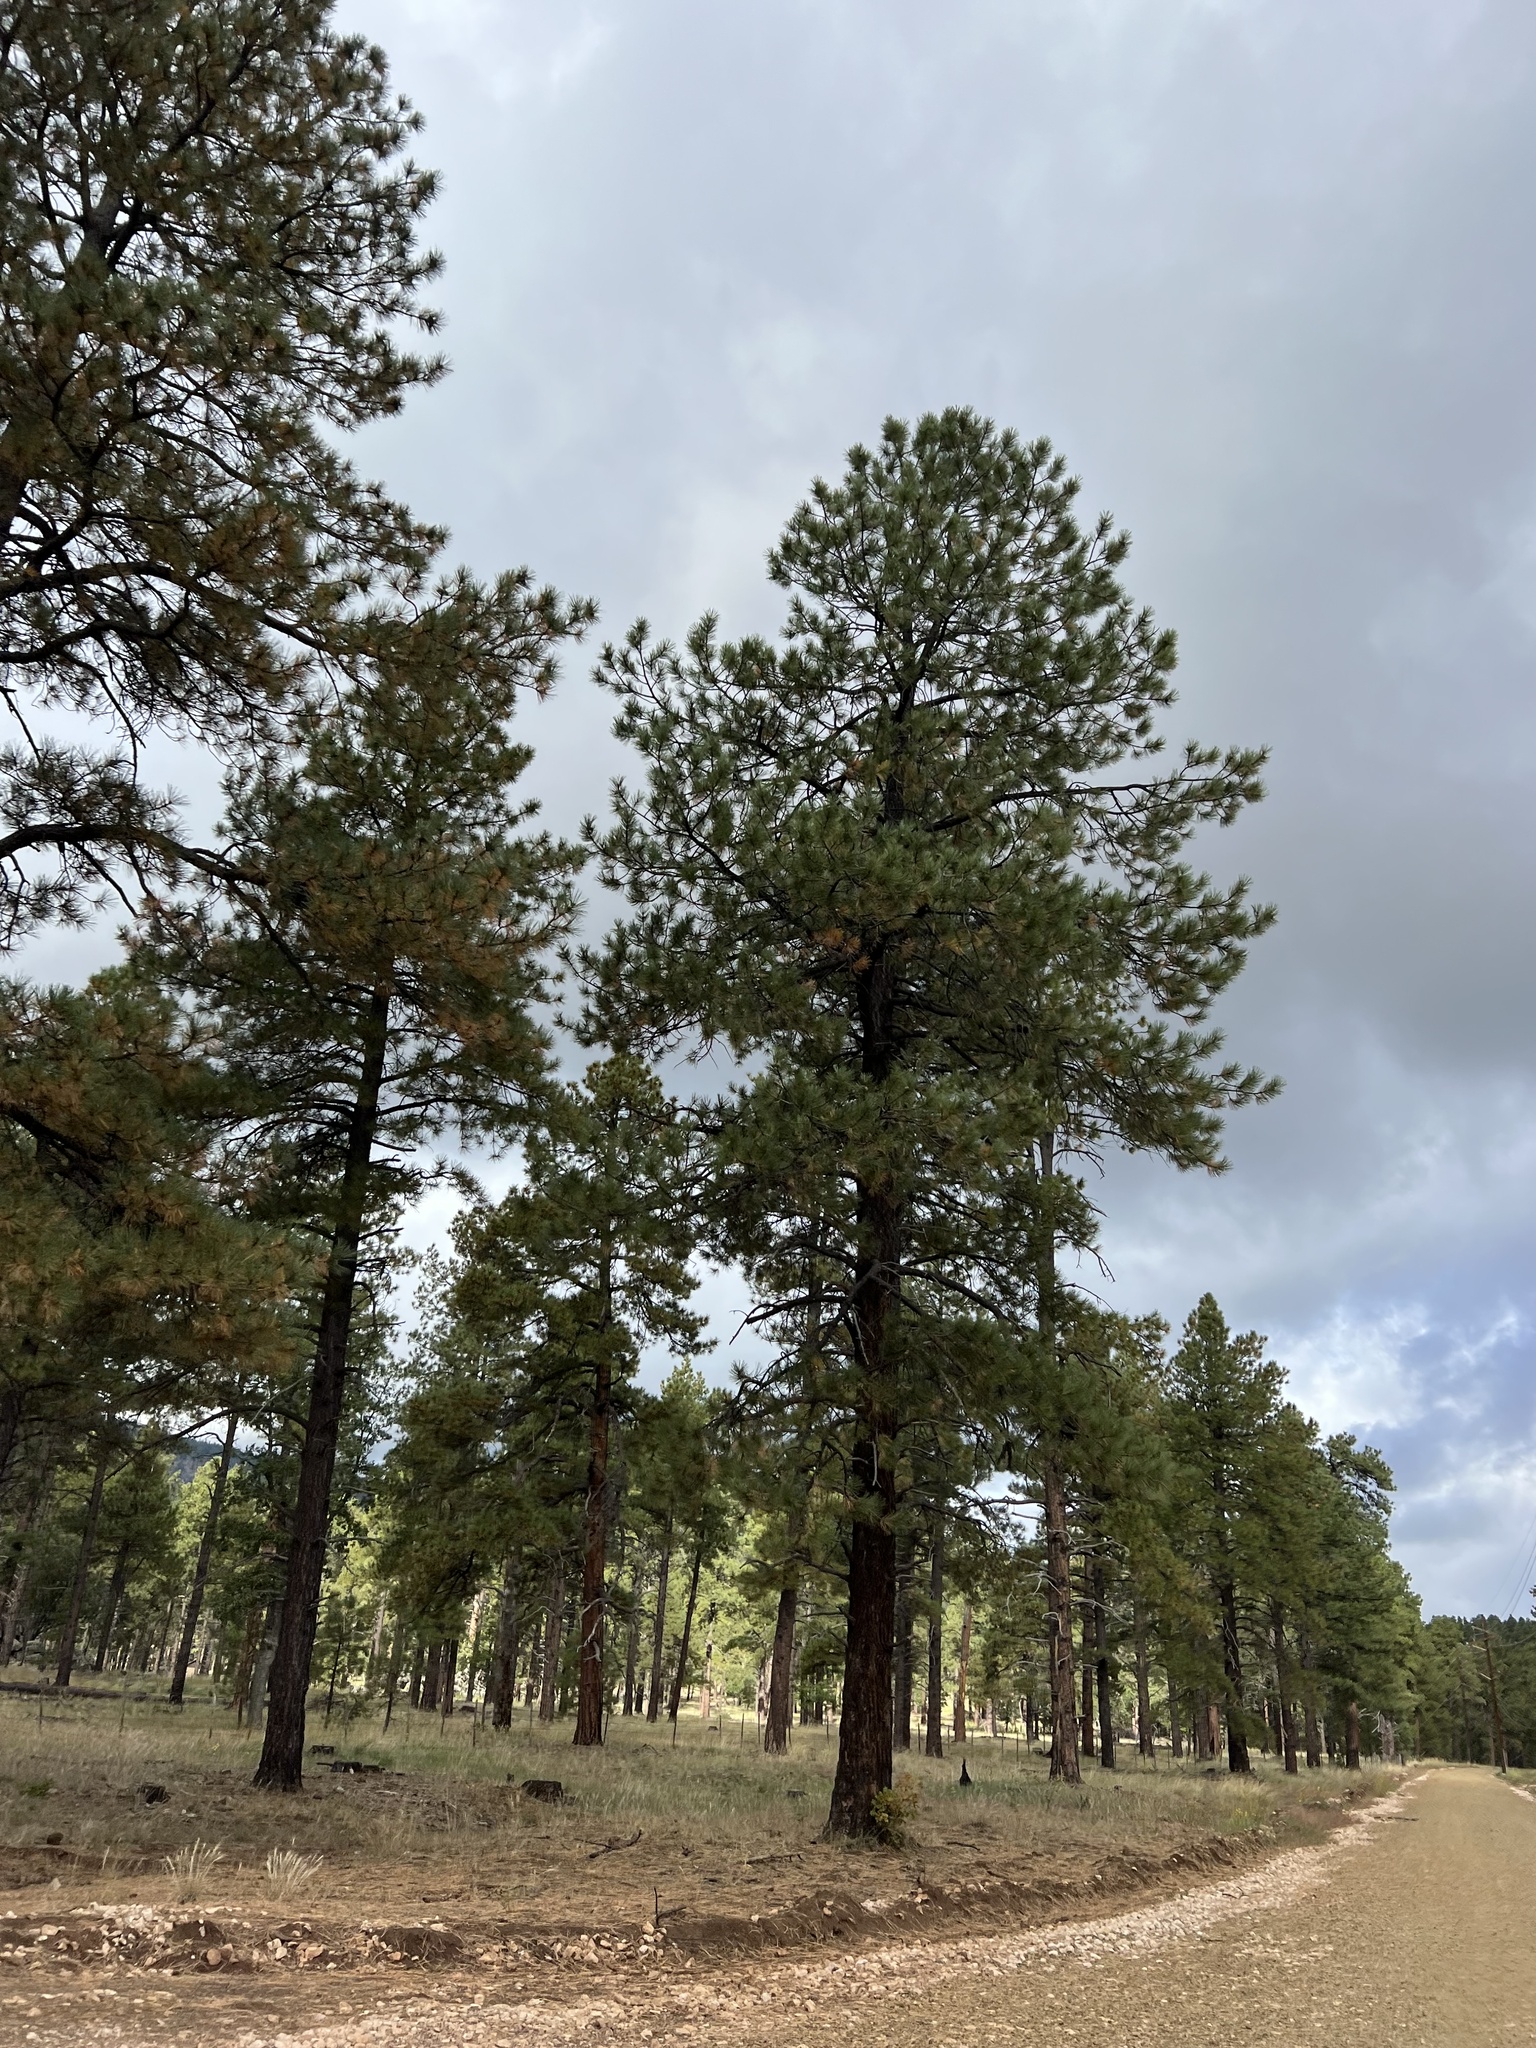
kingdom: Plantae
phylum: Tracheophyta
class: Pinopsida
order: Pinales
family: Pinaceae
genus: Pinus
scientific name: Pinus ponderosa
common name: Western yellow-pine
